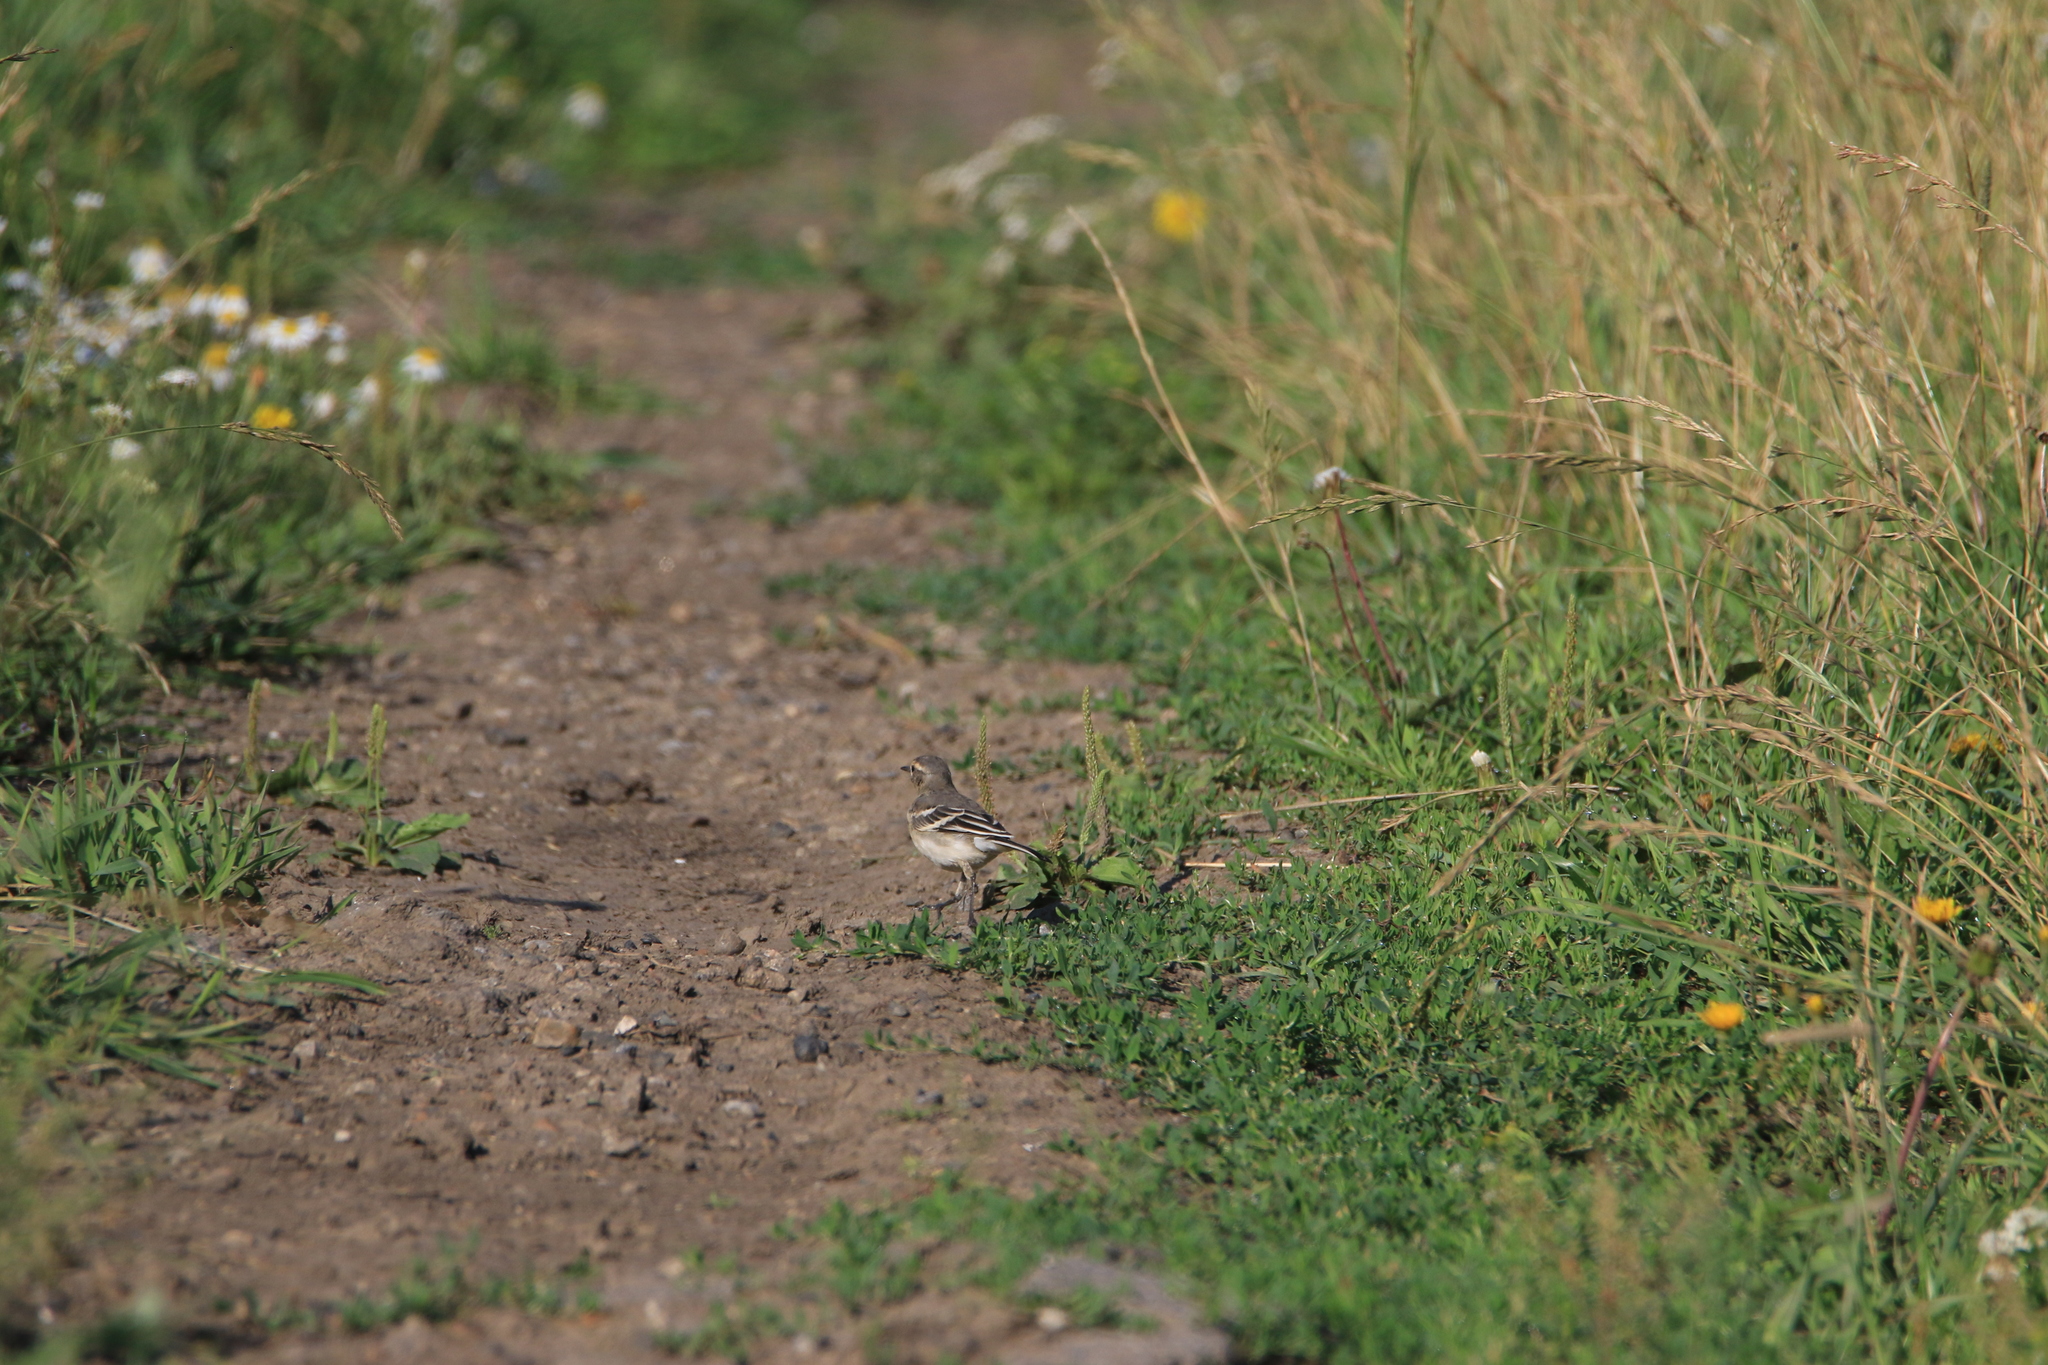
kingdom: Animalia
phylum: Chordata
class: Aves
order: Passeriformes
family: Motacillidae
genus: Motacilla
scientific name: Motacilla citreola
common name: Citrine wagtail
